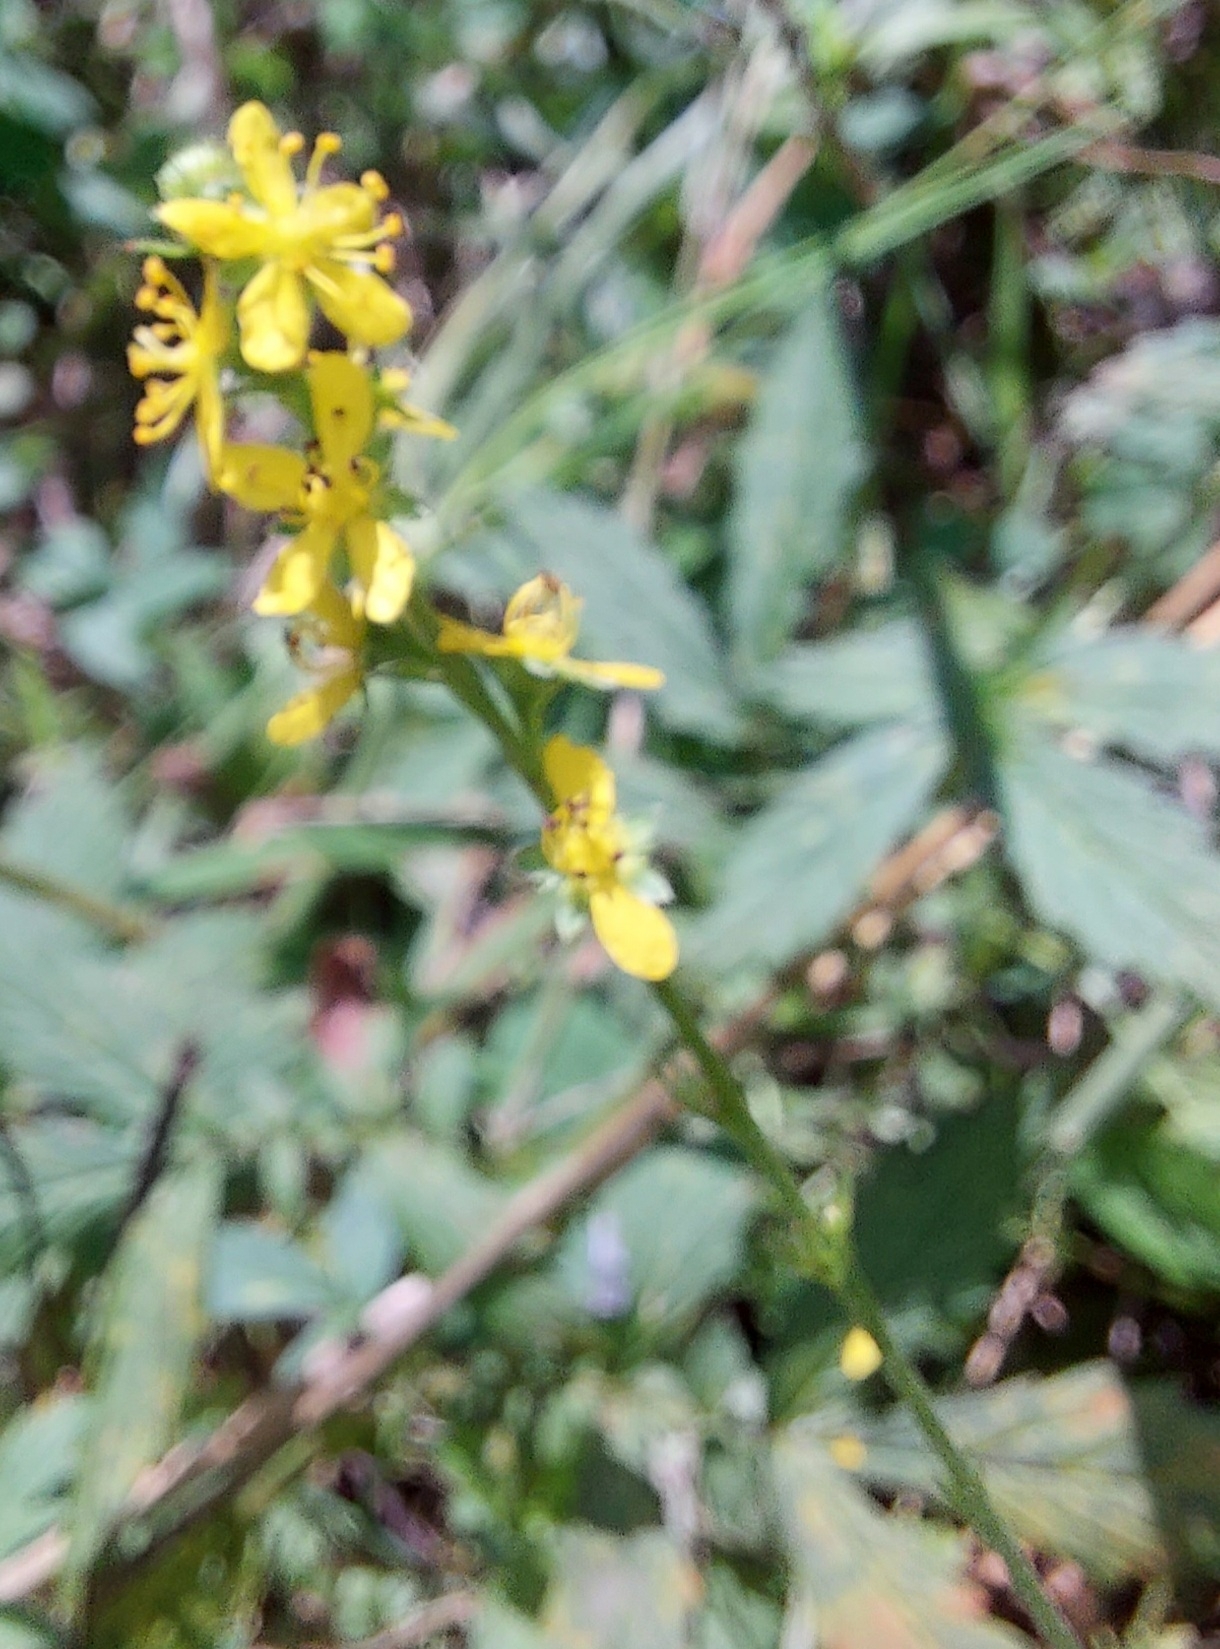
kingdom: Plantae
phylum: Tracheophyta
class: Magnoliopsida
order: Rosales
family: Rosaceae
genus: Agrimonia
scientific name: Agrimonia pilosa
